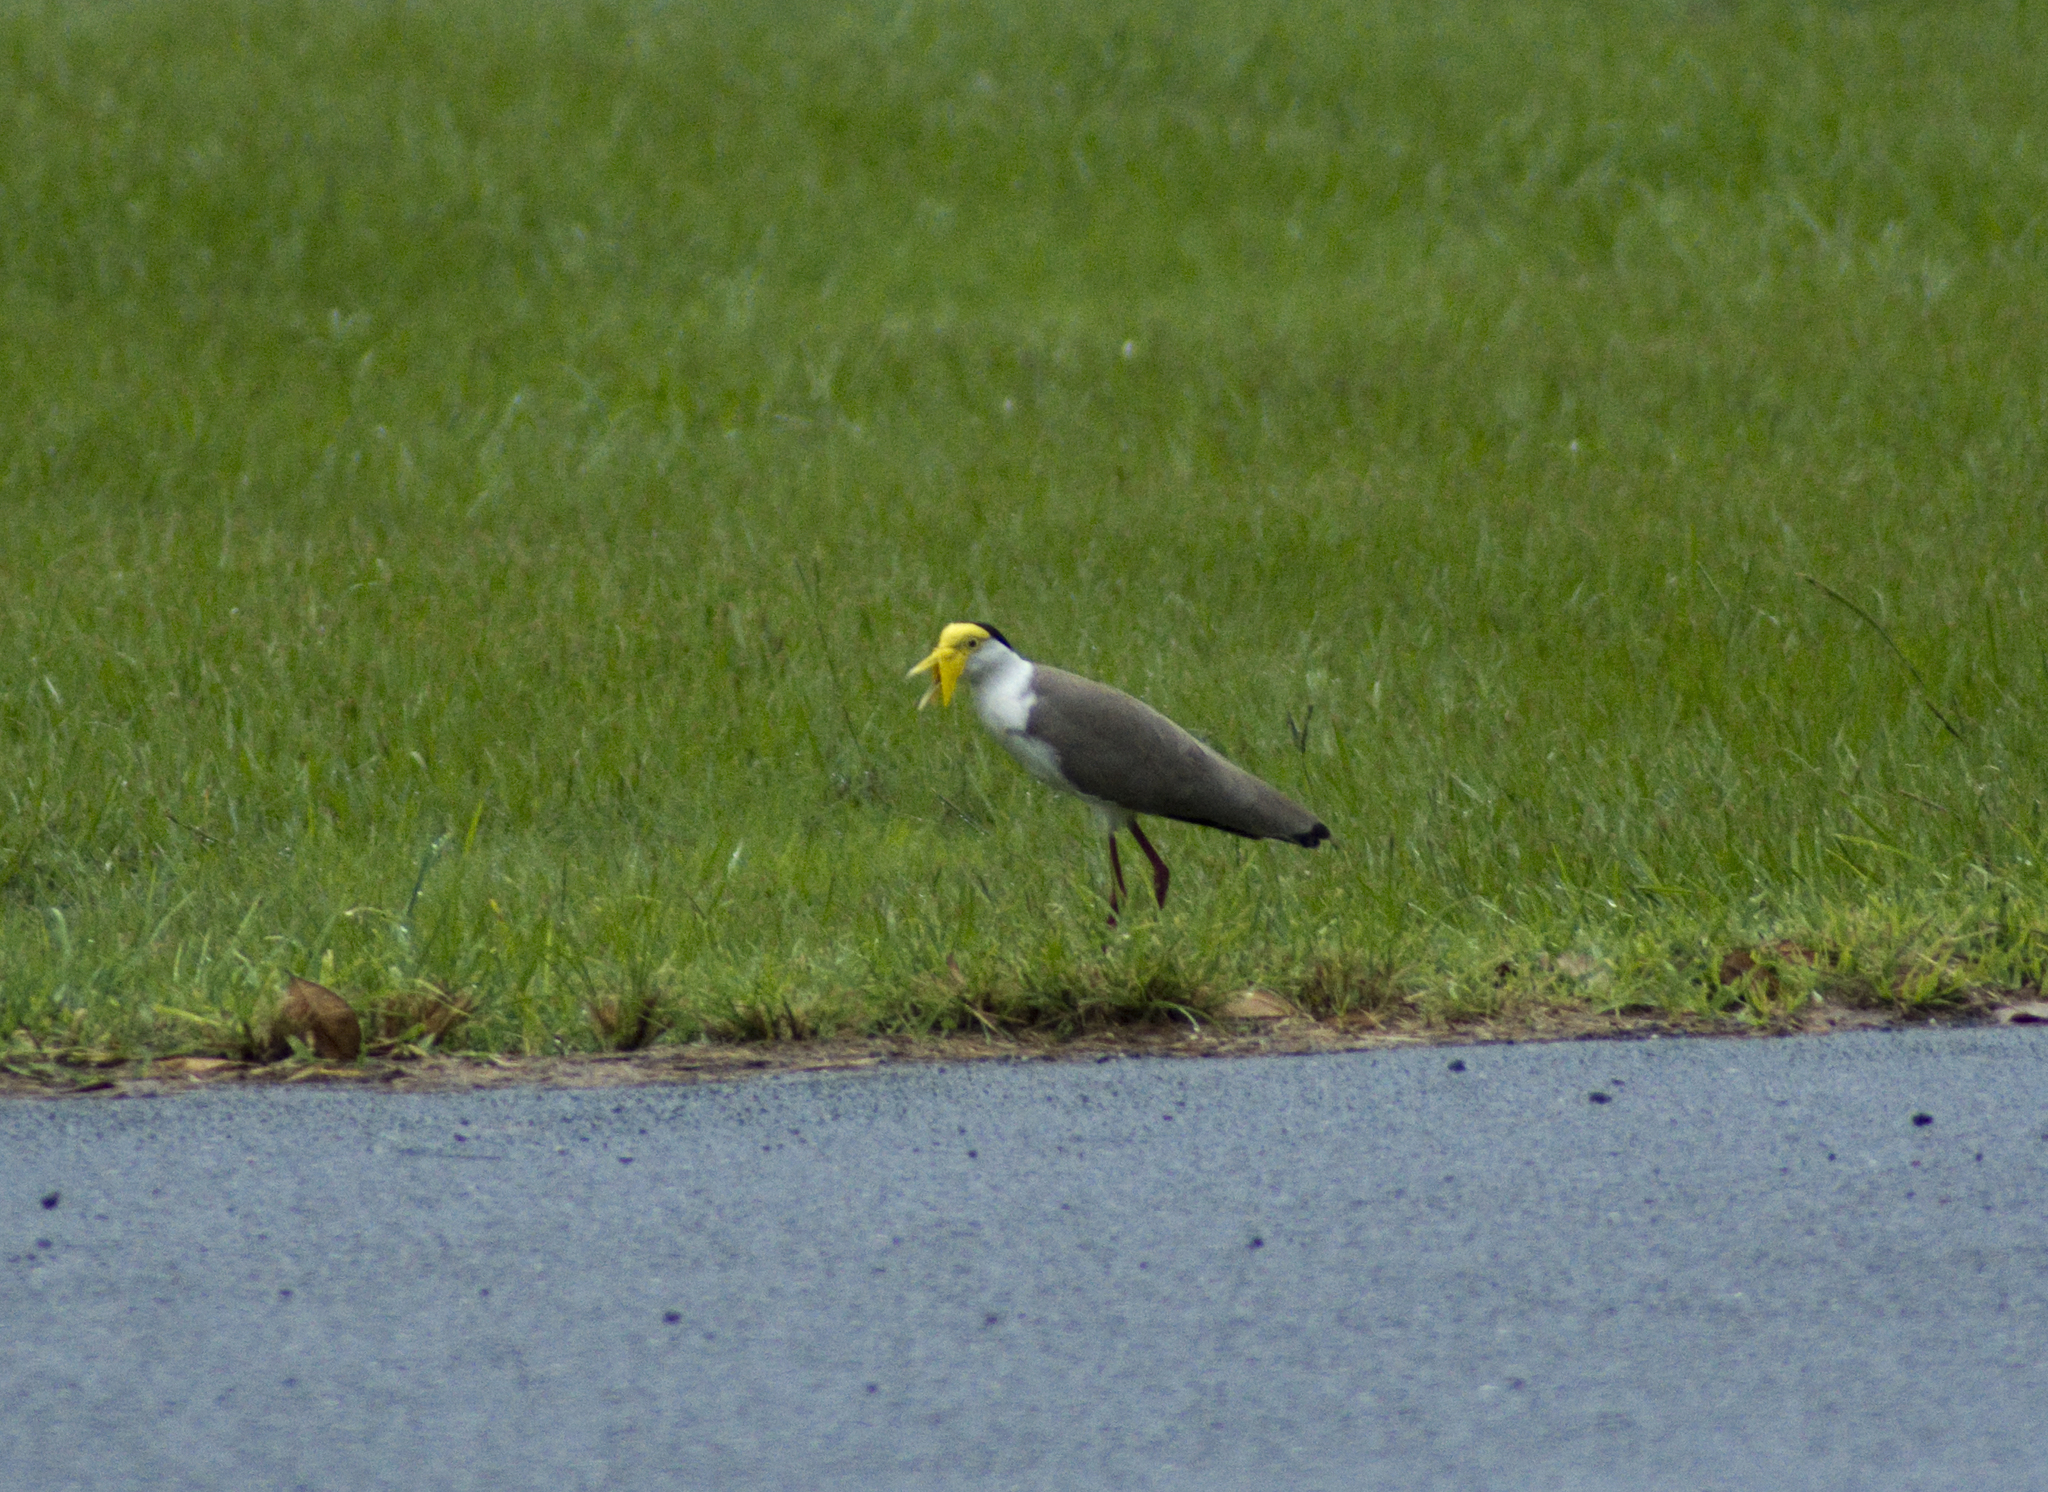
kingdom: Animalia
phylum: Chordata
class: Aves
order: Charadriiformes
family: Charadriidae
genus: Vanellus
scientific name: Vanellus miles
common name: Masked lapwing
